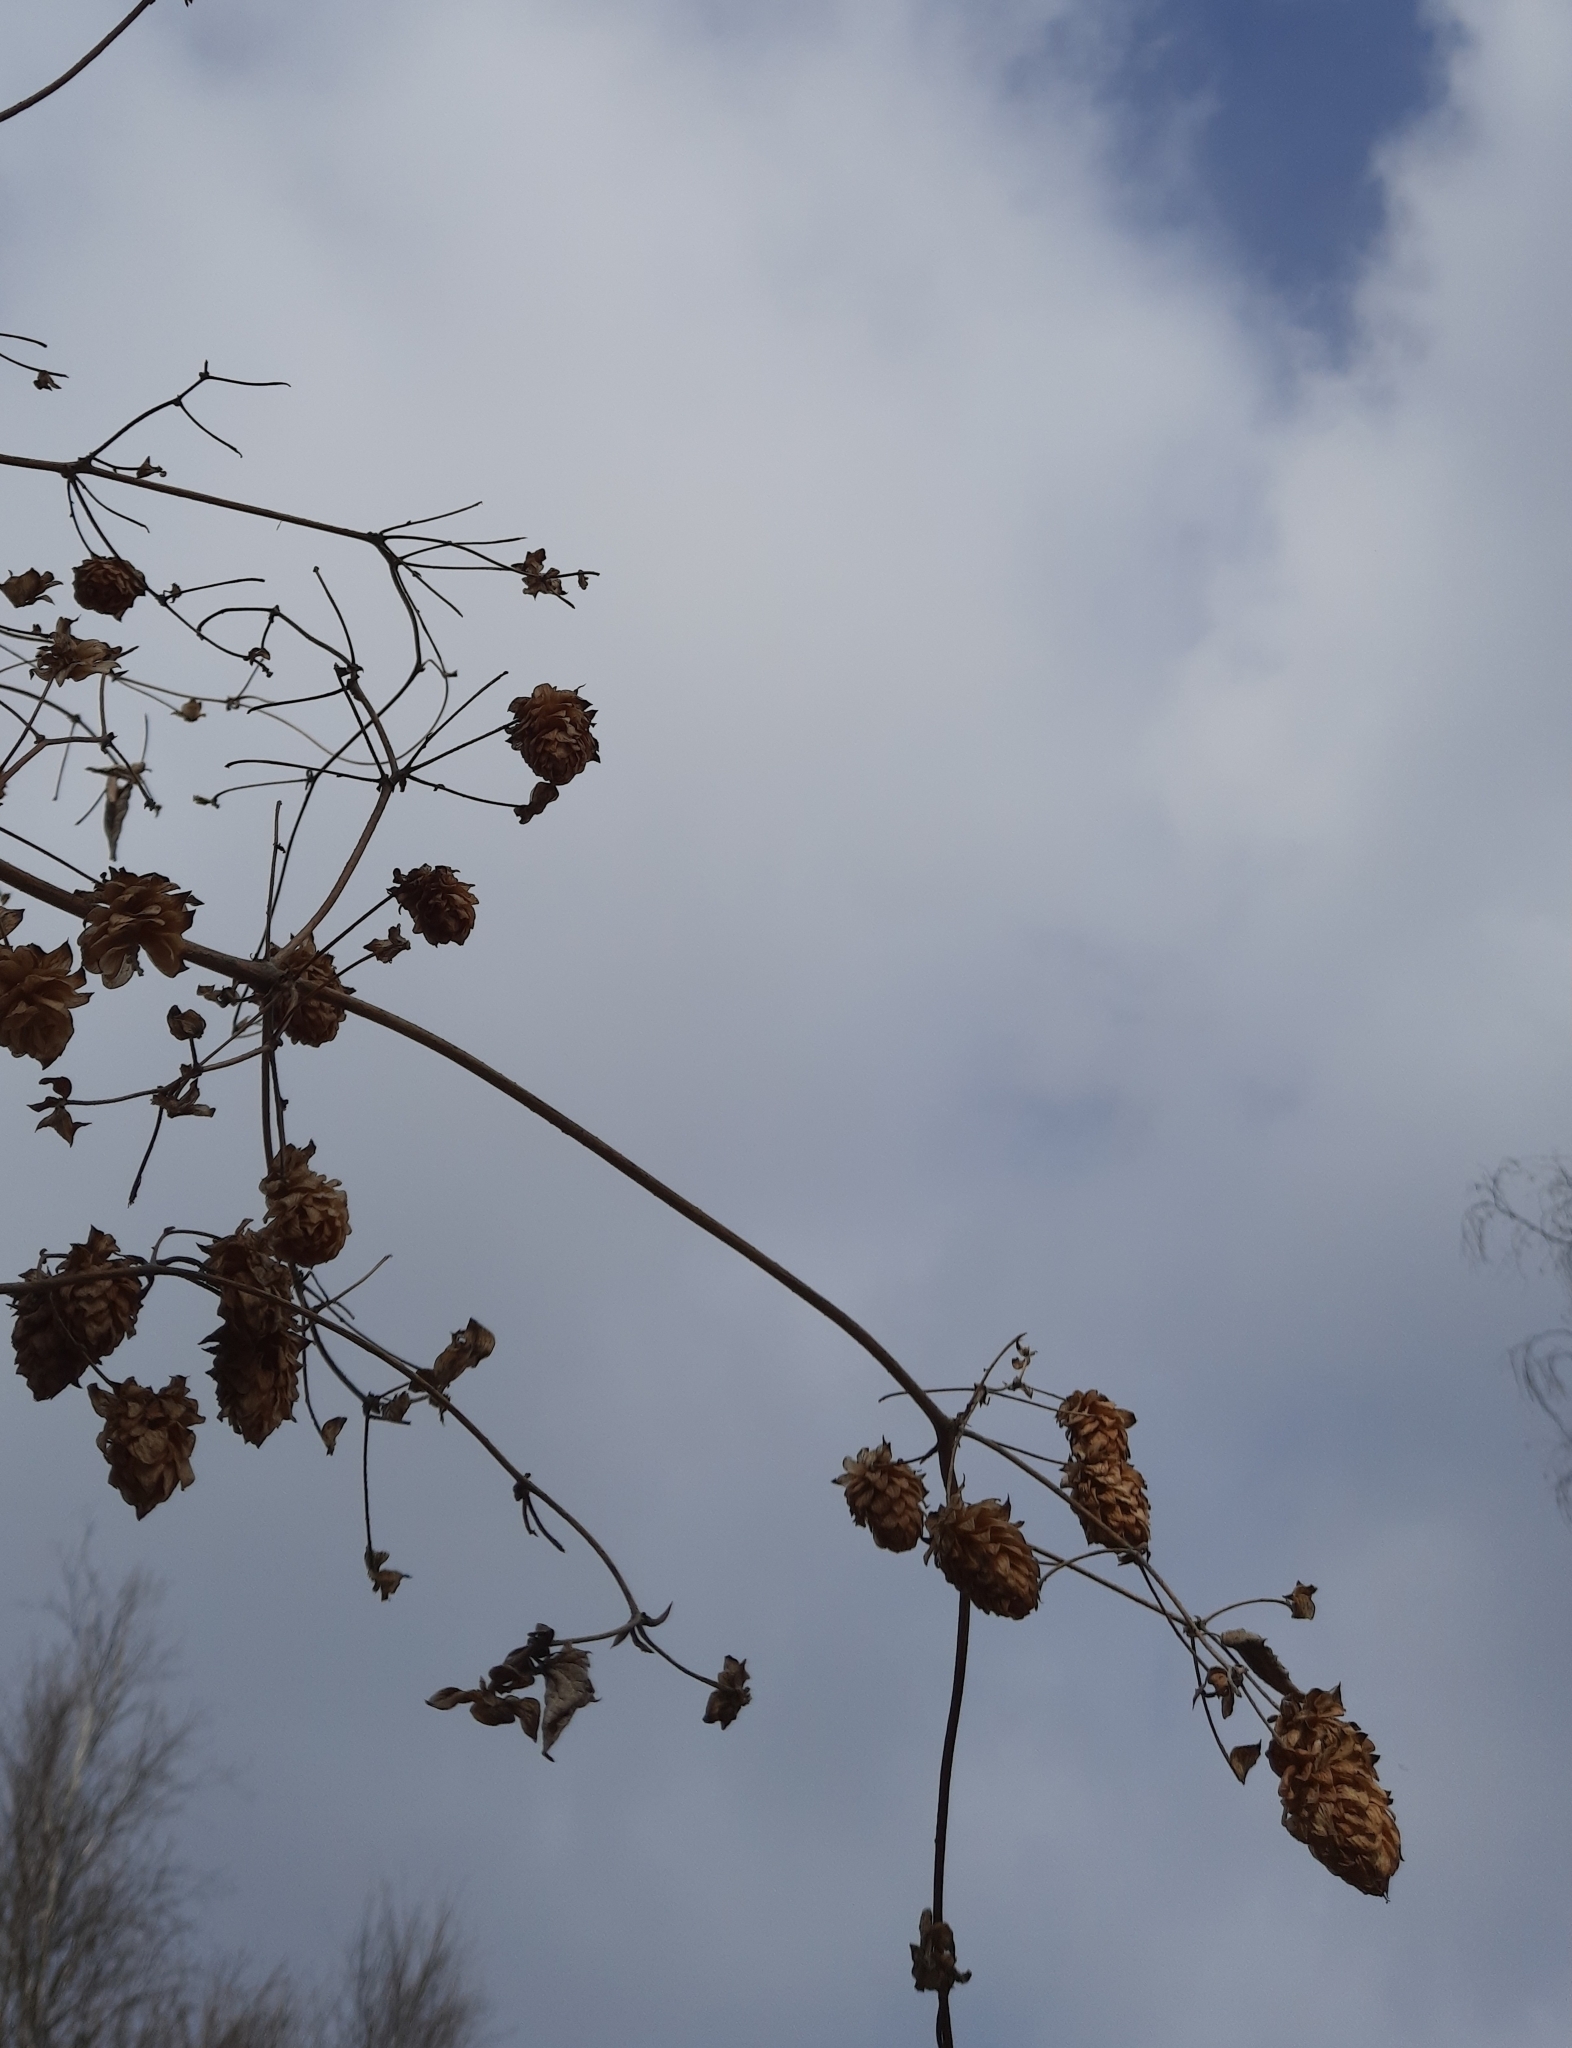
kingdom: Plantae
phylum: Tracheophyta
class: Magnoliopsida
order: Rosales
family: Cannabaceae
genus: Humulus
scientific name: Humulus lupulus
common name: Hop
